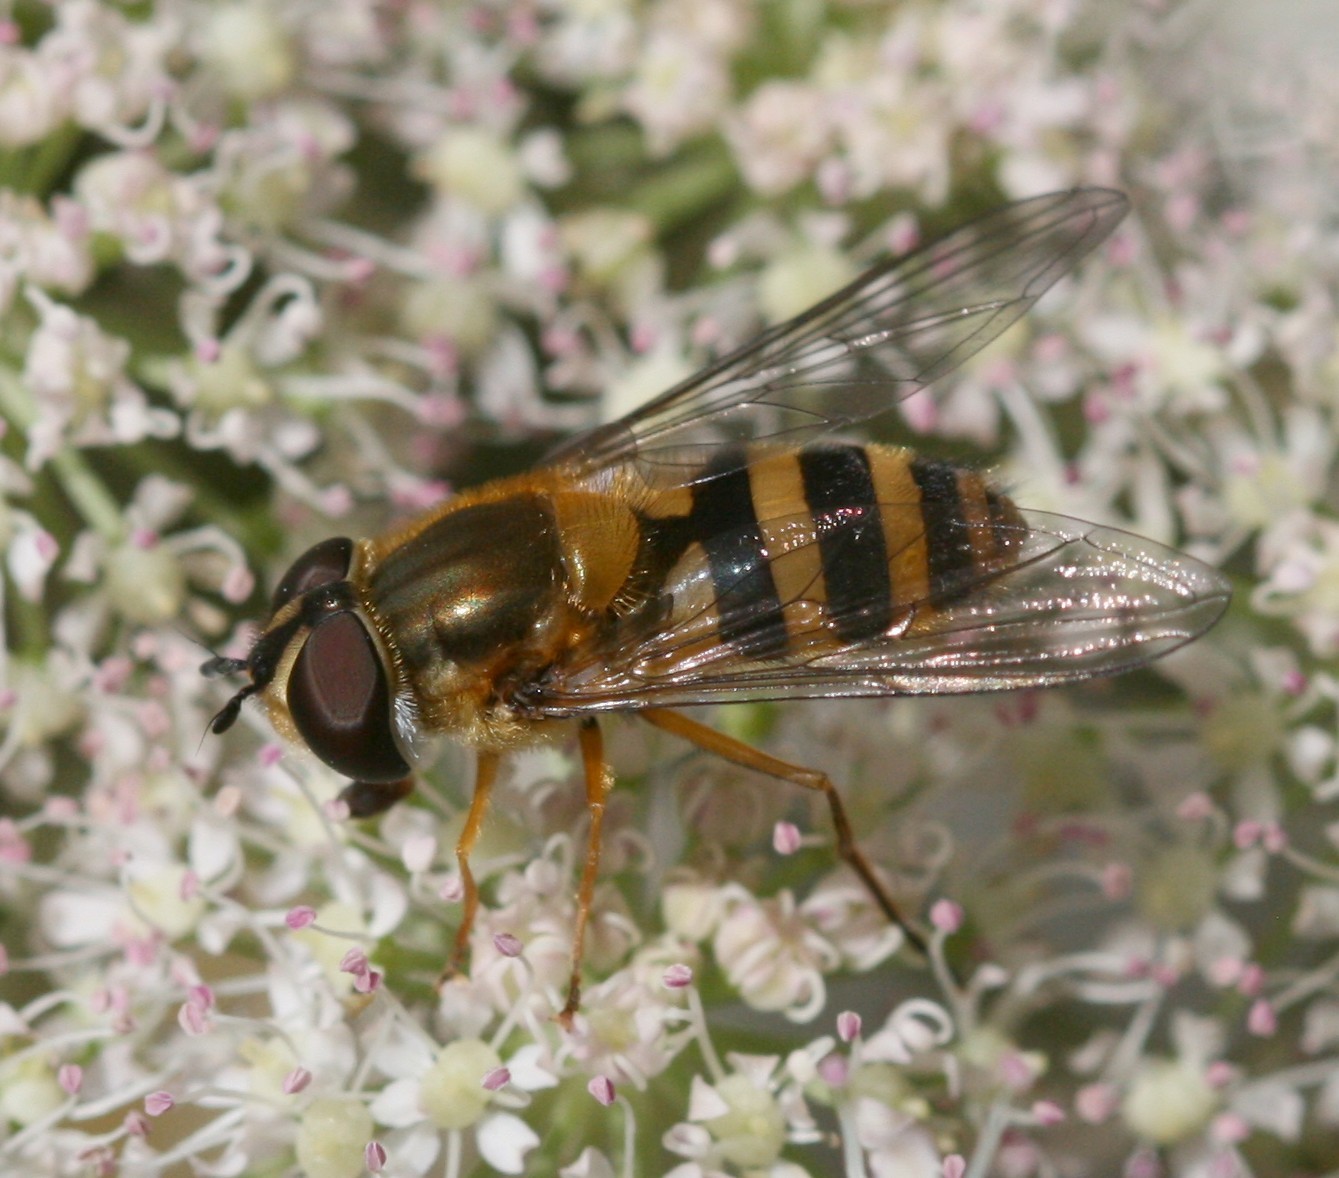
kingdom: Animalia
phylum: Arthropoda
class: Insecta
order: Diptera
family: Syrphidae
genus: Epistrophe
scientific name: Epistrophe grossulariae
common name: Black-horned smoothtail
